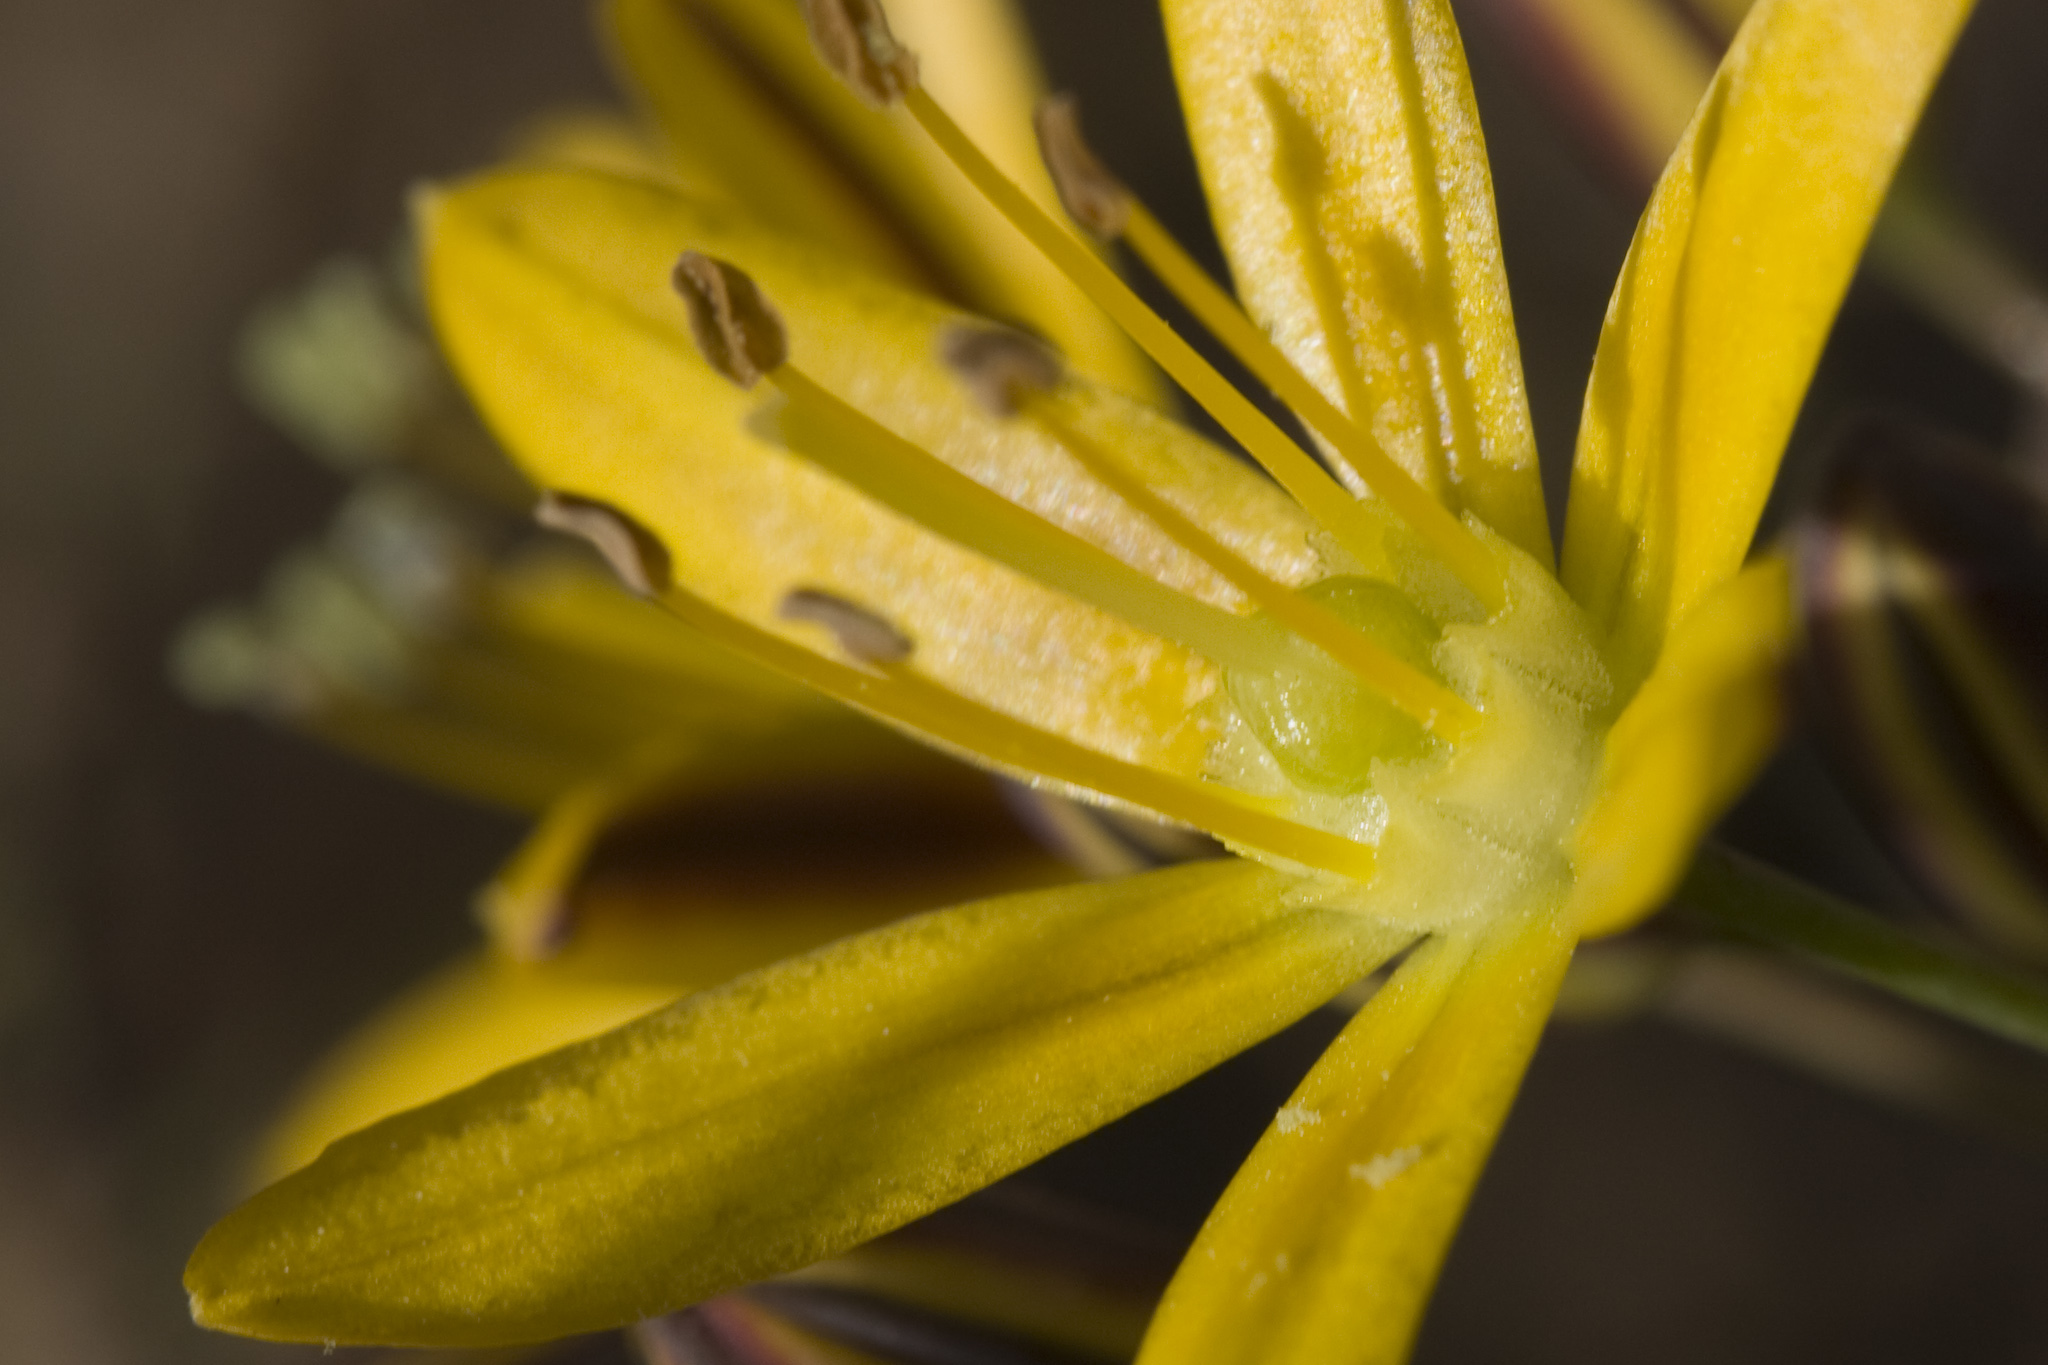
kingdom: Plantae
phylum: Tracheophyta
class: Liliopsida
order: Asparagales
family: Asparagaceae
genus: Bloomeria
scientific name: Bloomeria crocea
